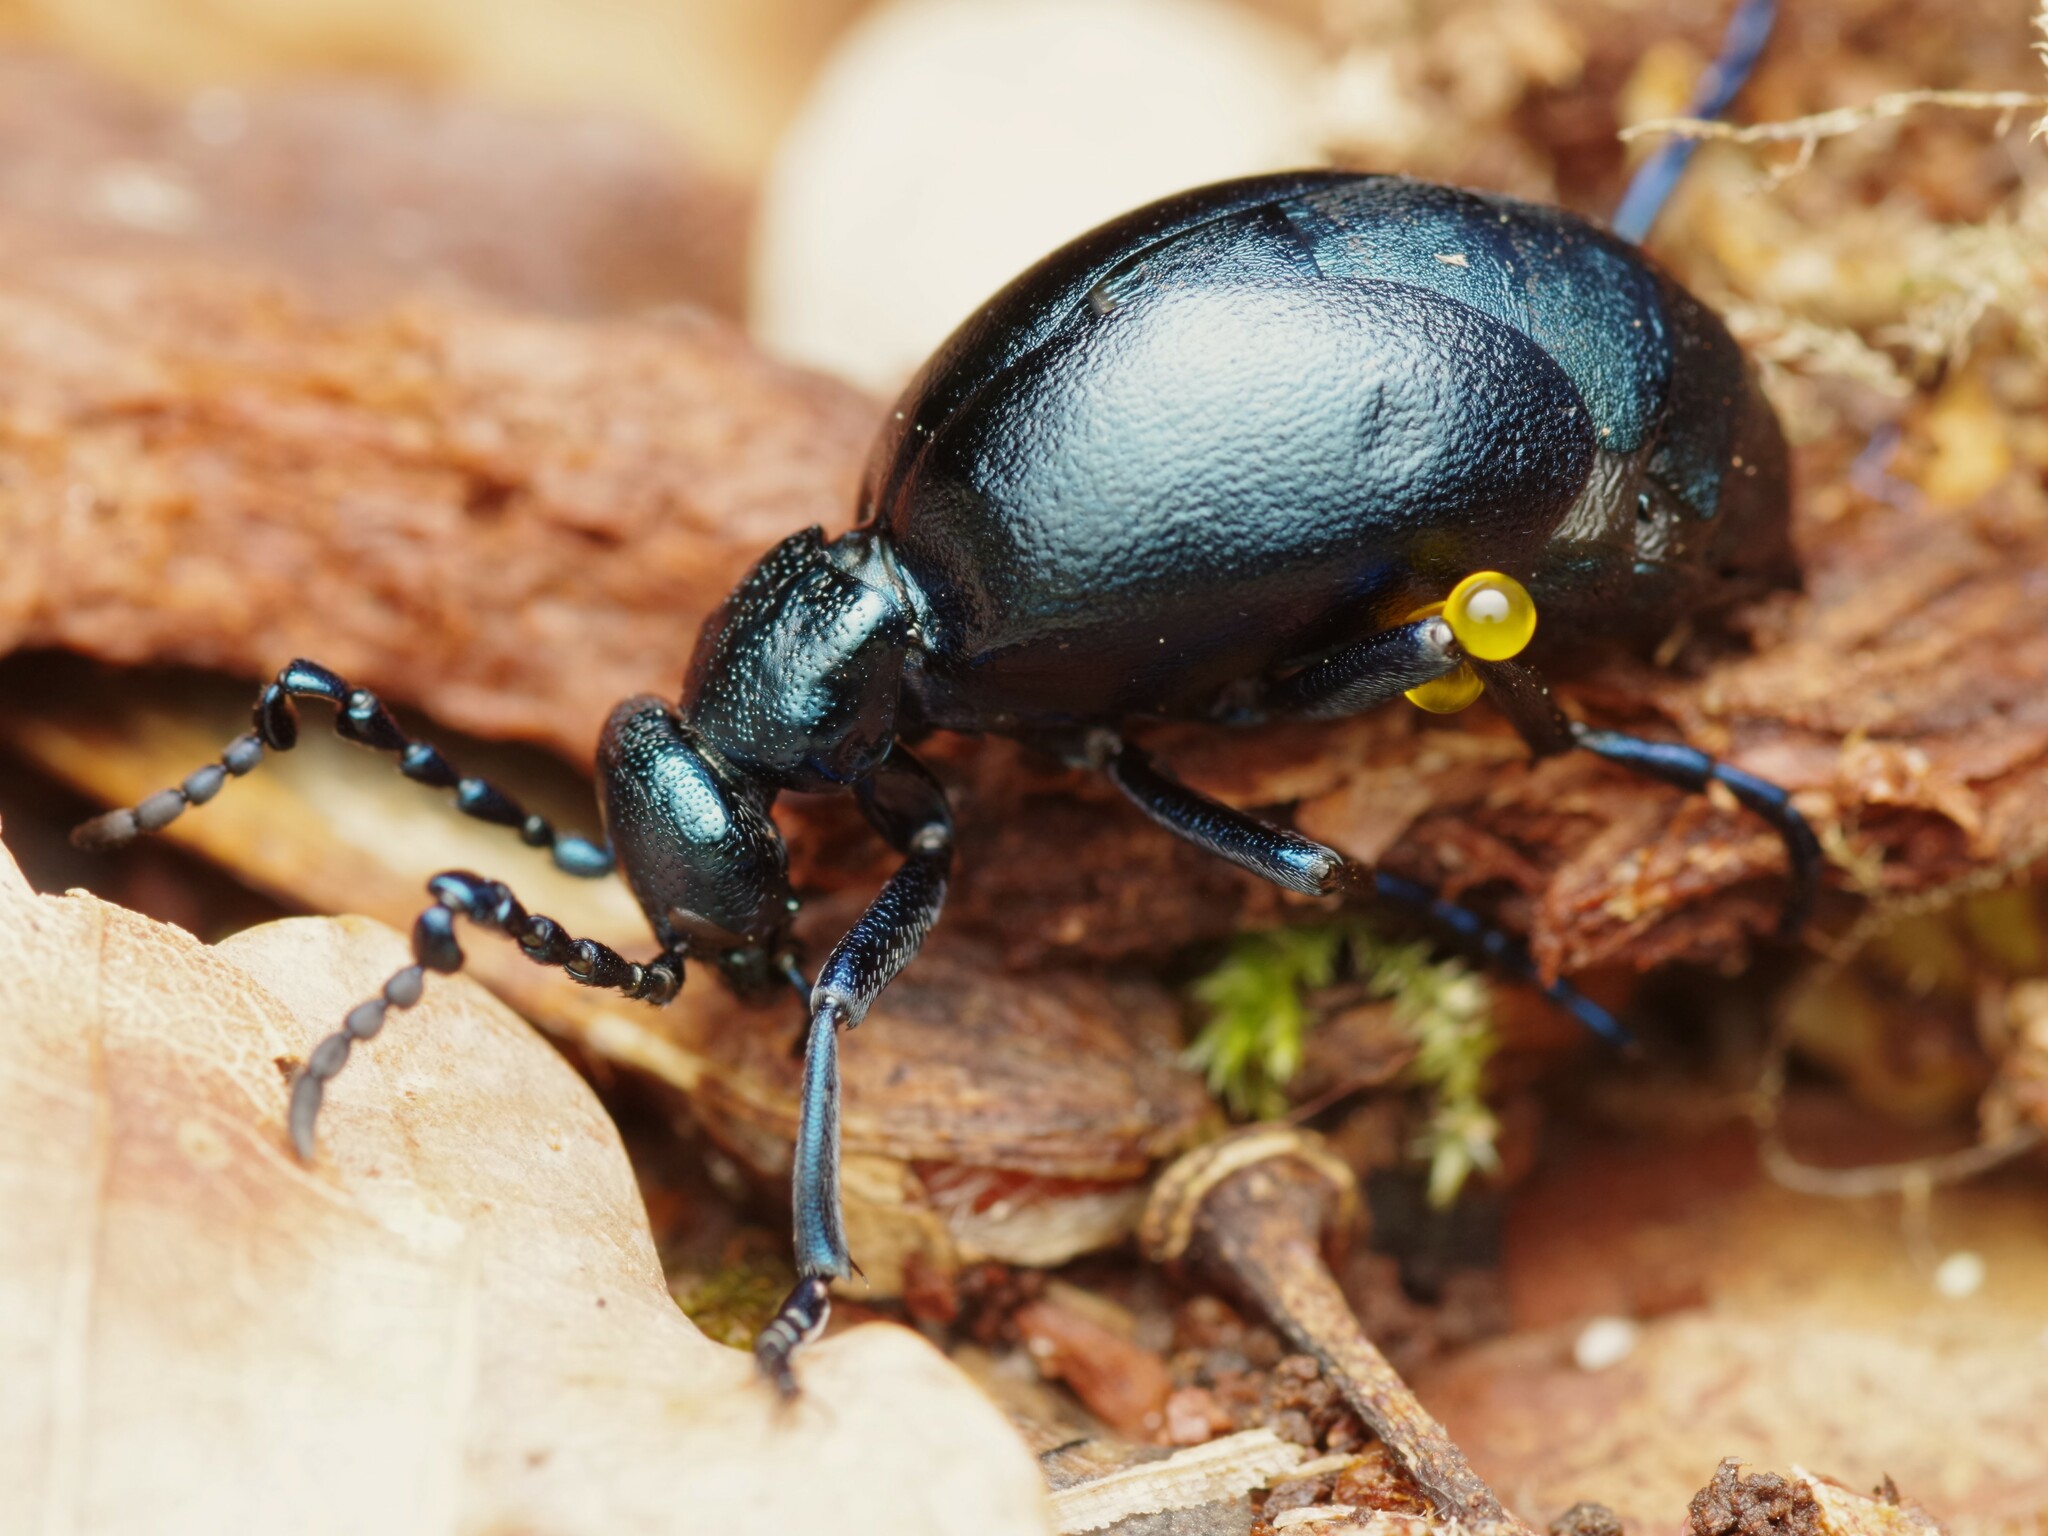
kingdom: Animalia
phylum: Arthropoda
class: Insecta
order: Coleoptera
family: Meloidae
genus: Meloe
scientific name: Meloe violaceus
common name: Violet oil-beetle
